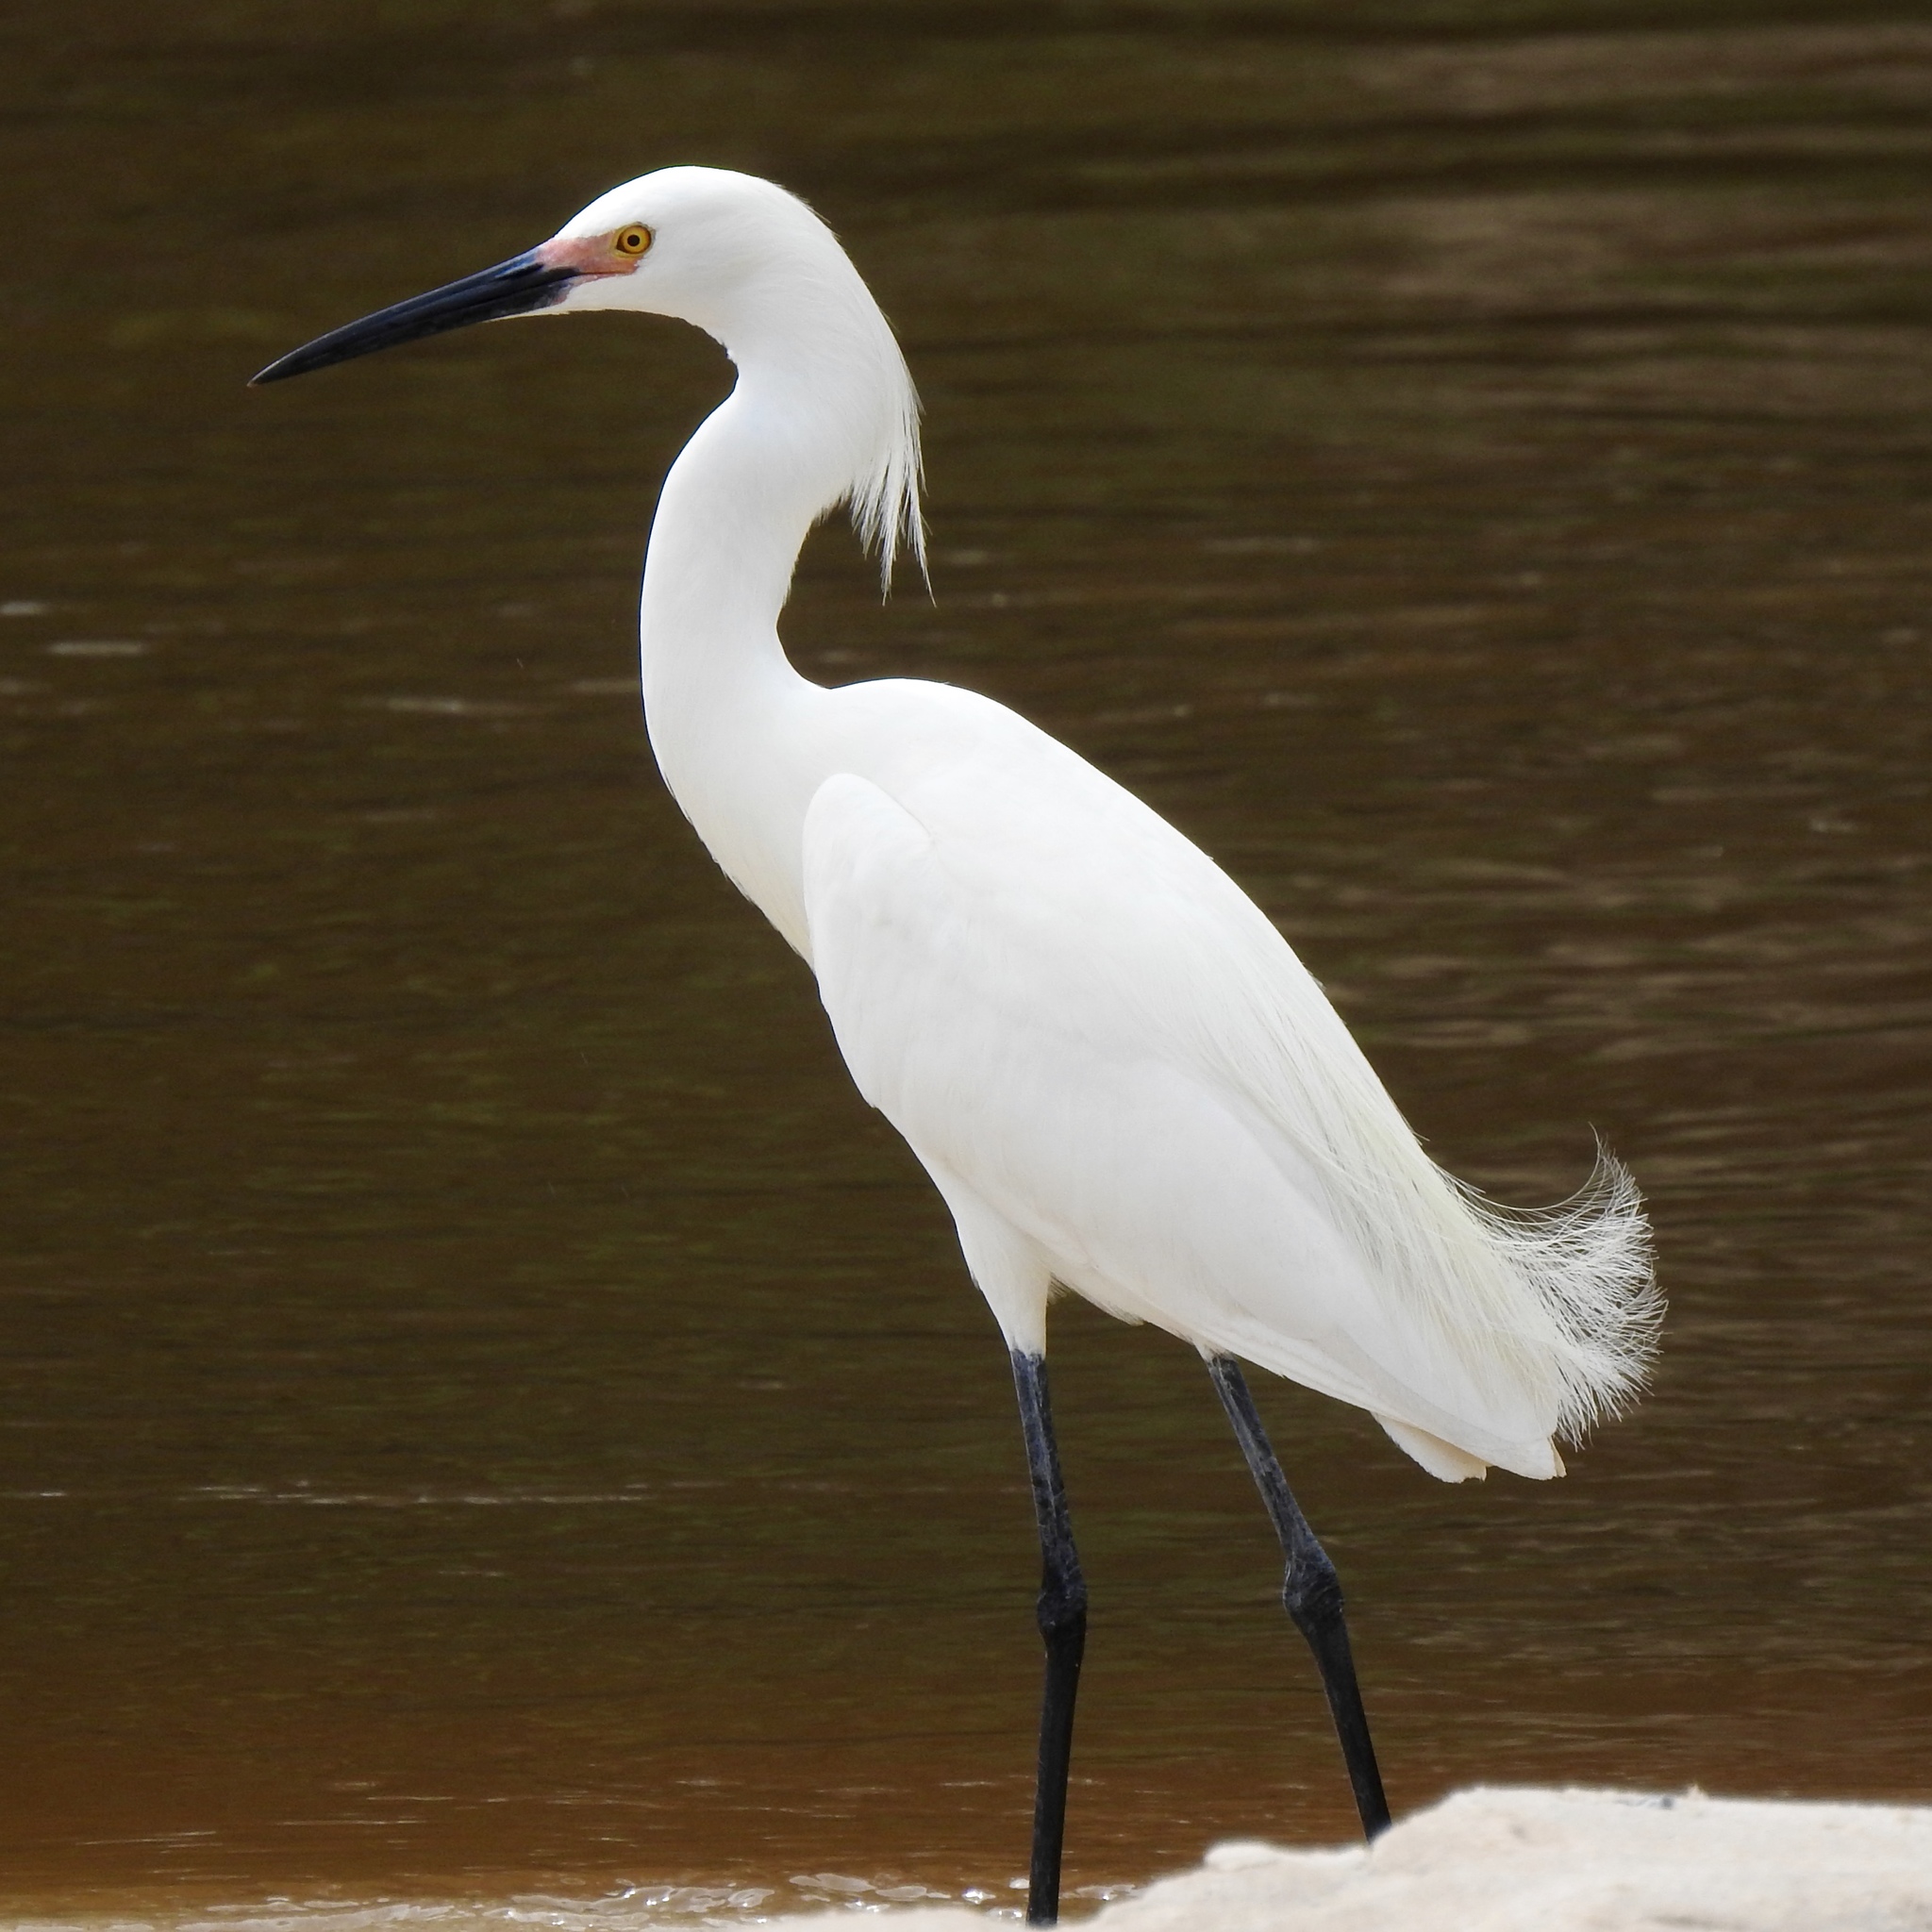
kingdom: Animalia
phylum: Chordata
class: Aves
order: Pelecaniformes
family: Ardeidae
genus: Egretta
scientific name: Egretta thula
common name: Snowy egret
